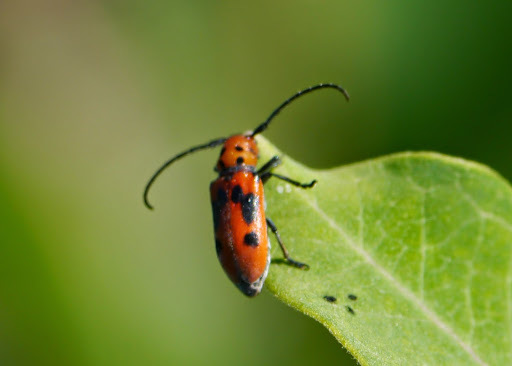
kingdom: Animalia
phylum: Arthropoda
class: Insecta
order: Coleoptera
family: Cerambycidae
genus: Tetraopes
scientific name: Tetraopes tetrophthalmus
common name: Red milkweed beetle
